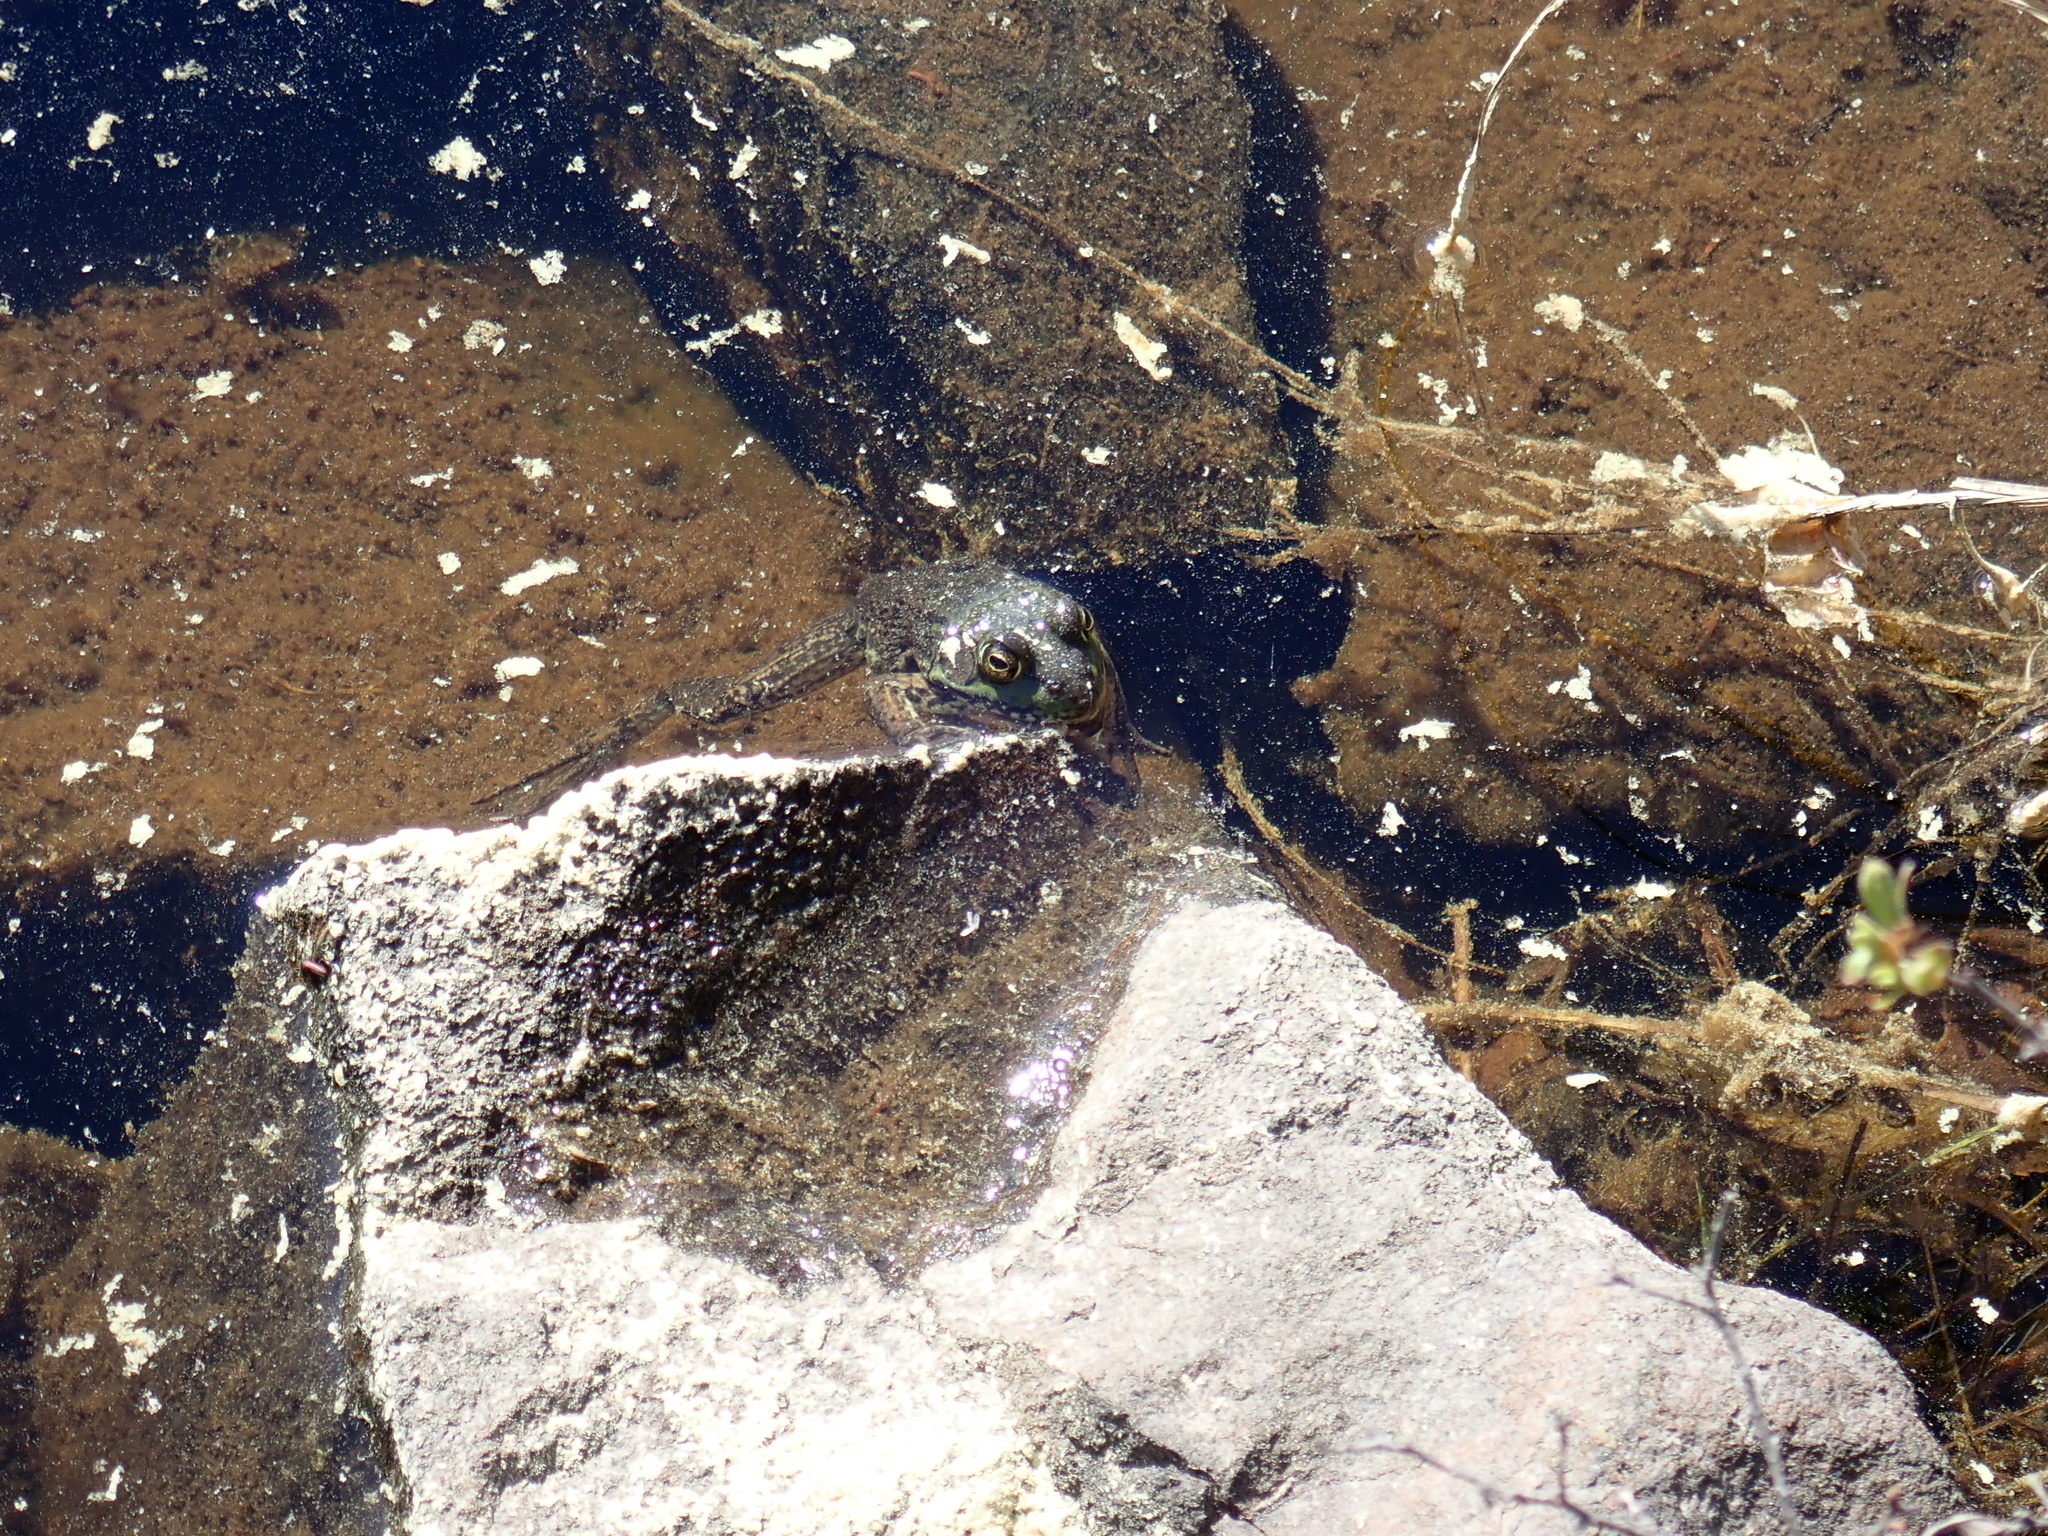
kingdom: Animalia
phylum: Chordata
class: Amphibia
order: Anura
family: Ranidae
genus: Lithobates
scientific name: Lithobates clamitans
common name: Green frog
